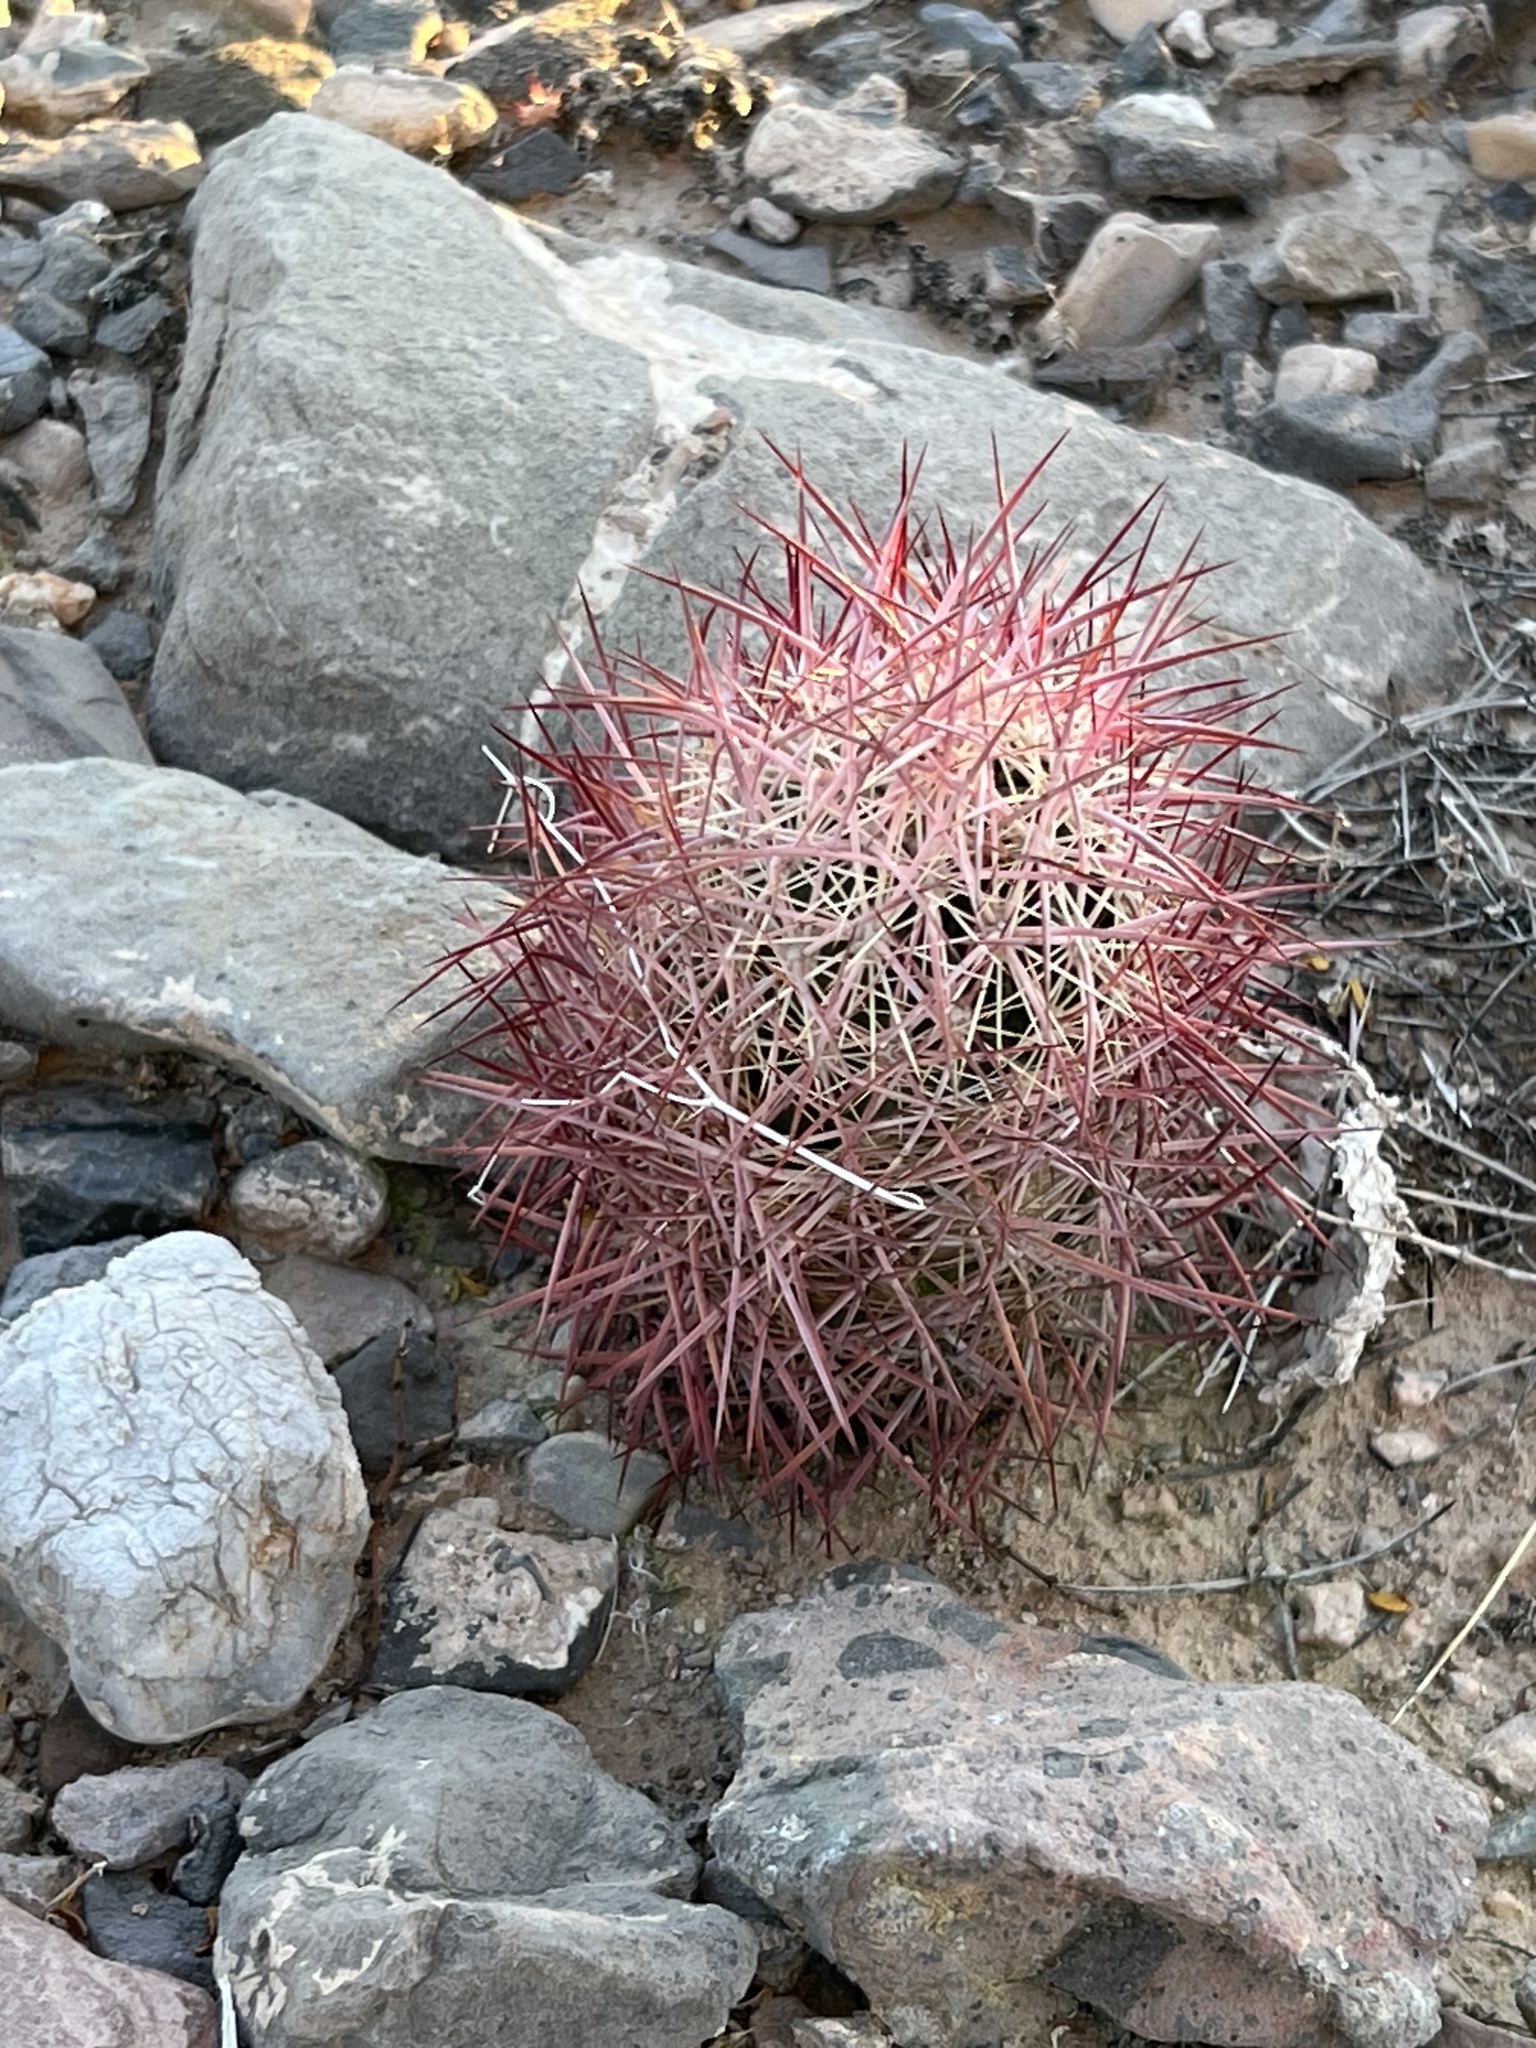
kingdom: Plantae
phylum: Tracheophyta
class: Magnoliopsida
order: Caryophyllales
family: Cactaceae
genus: Sclerocactus
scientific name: Sclerocactus johnsonii
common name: Eight-spine fishhook cactus
